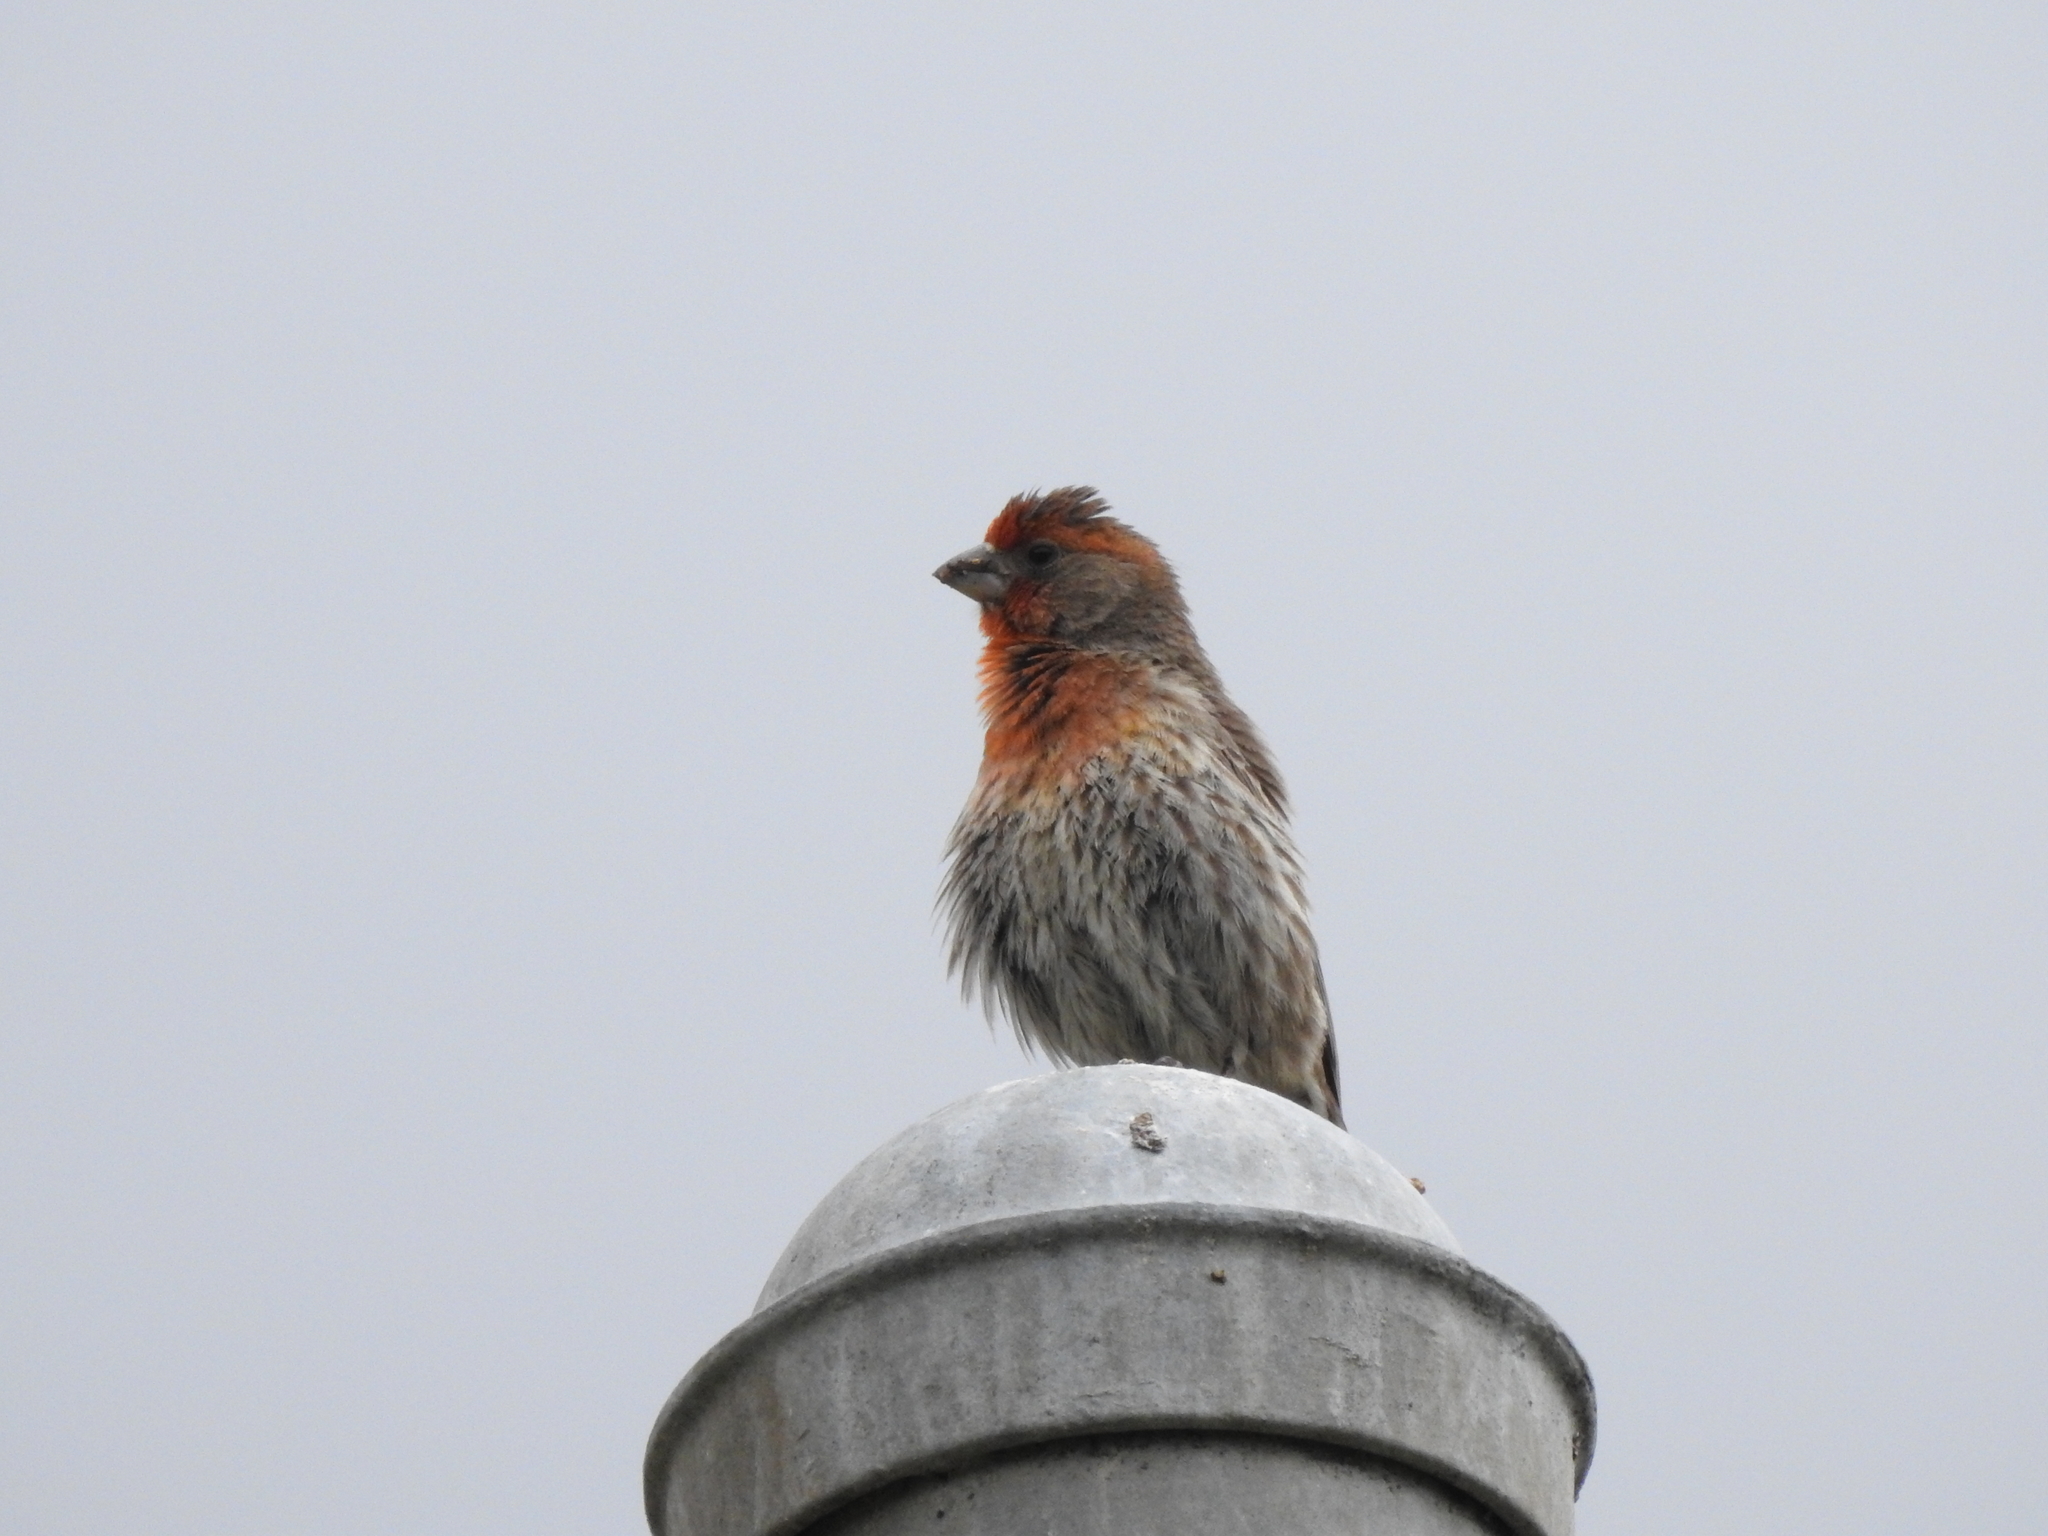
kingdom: Animalia
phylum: Chordata
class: Aves
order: Passeriformes
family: Fringillidae
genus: Haemorhous
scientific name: Haemorhous mexicanus
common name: House finch
